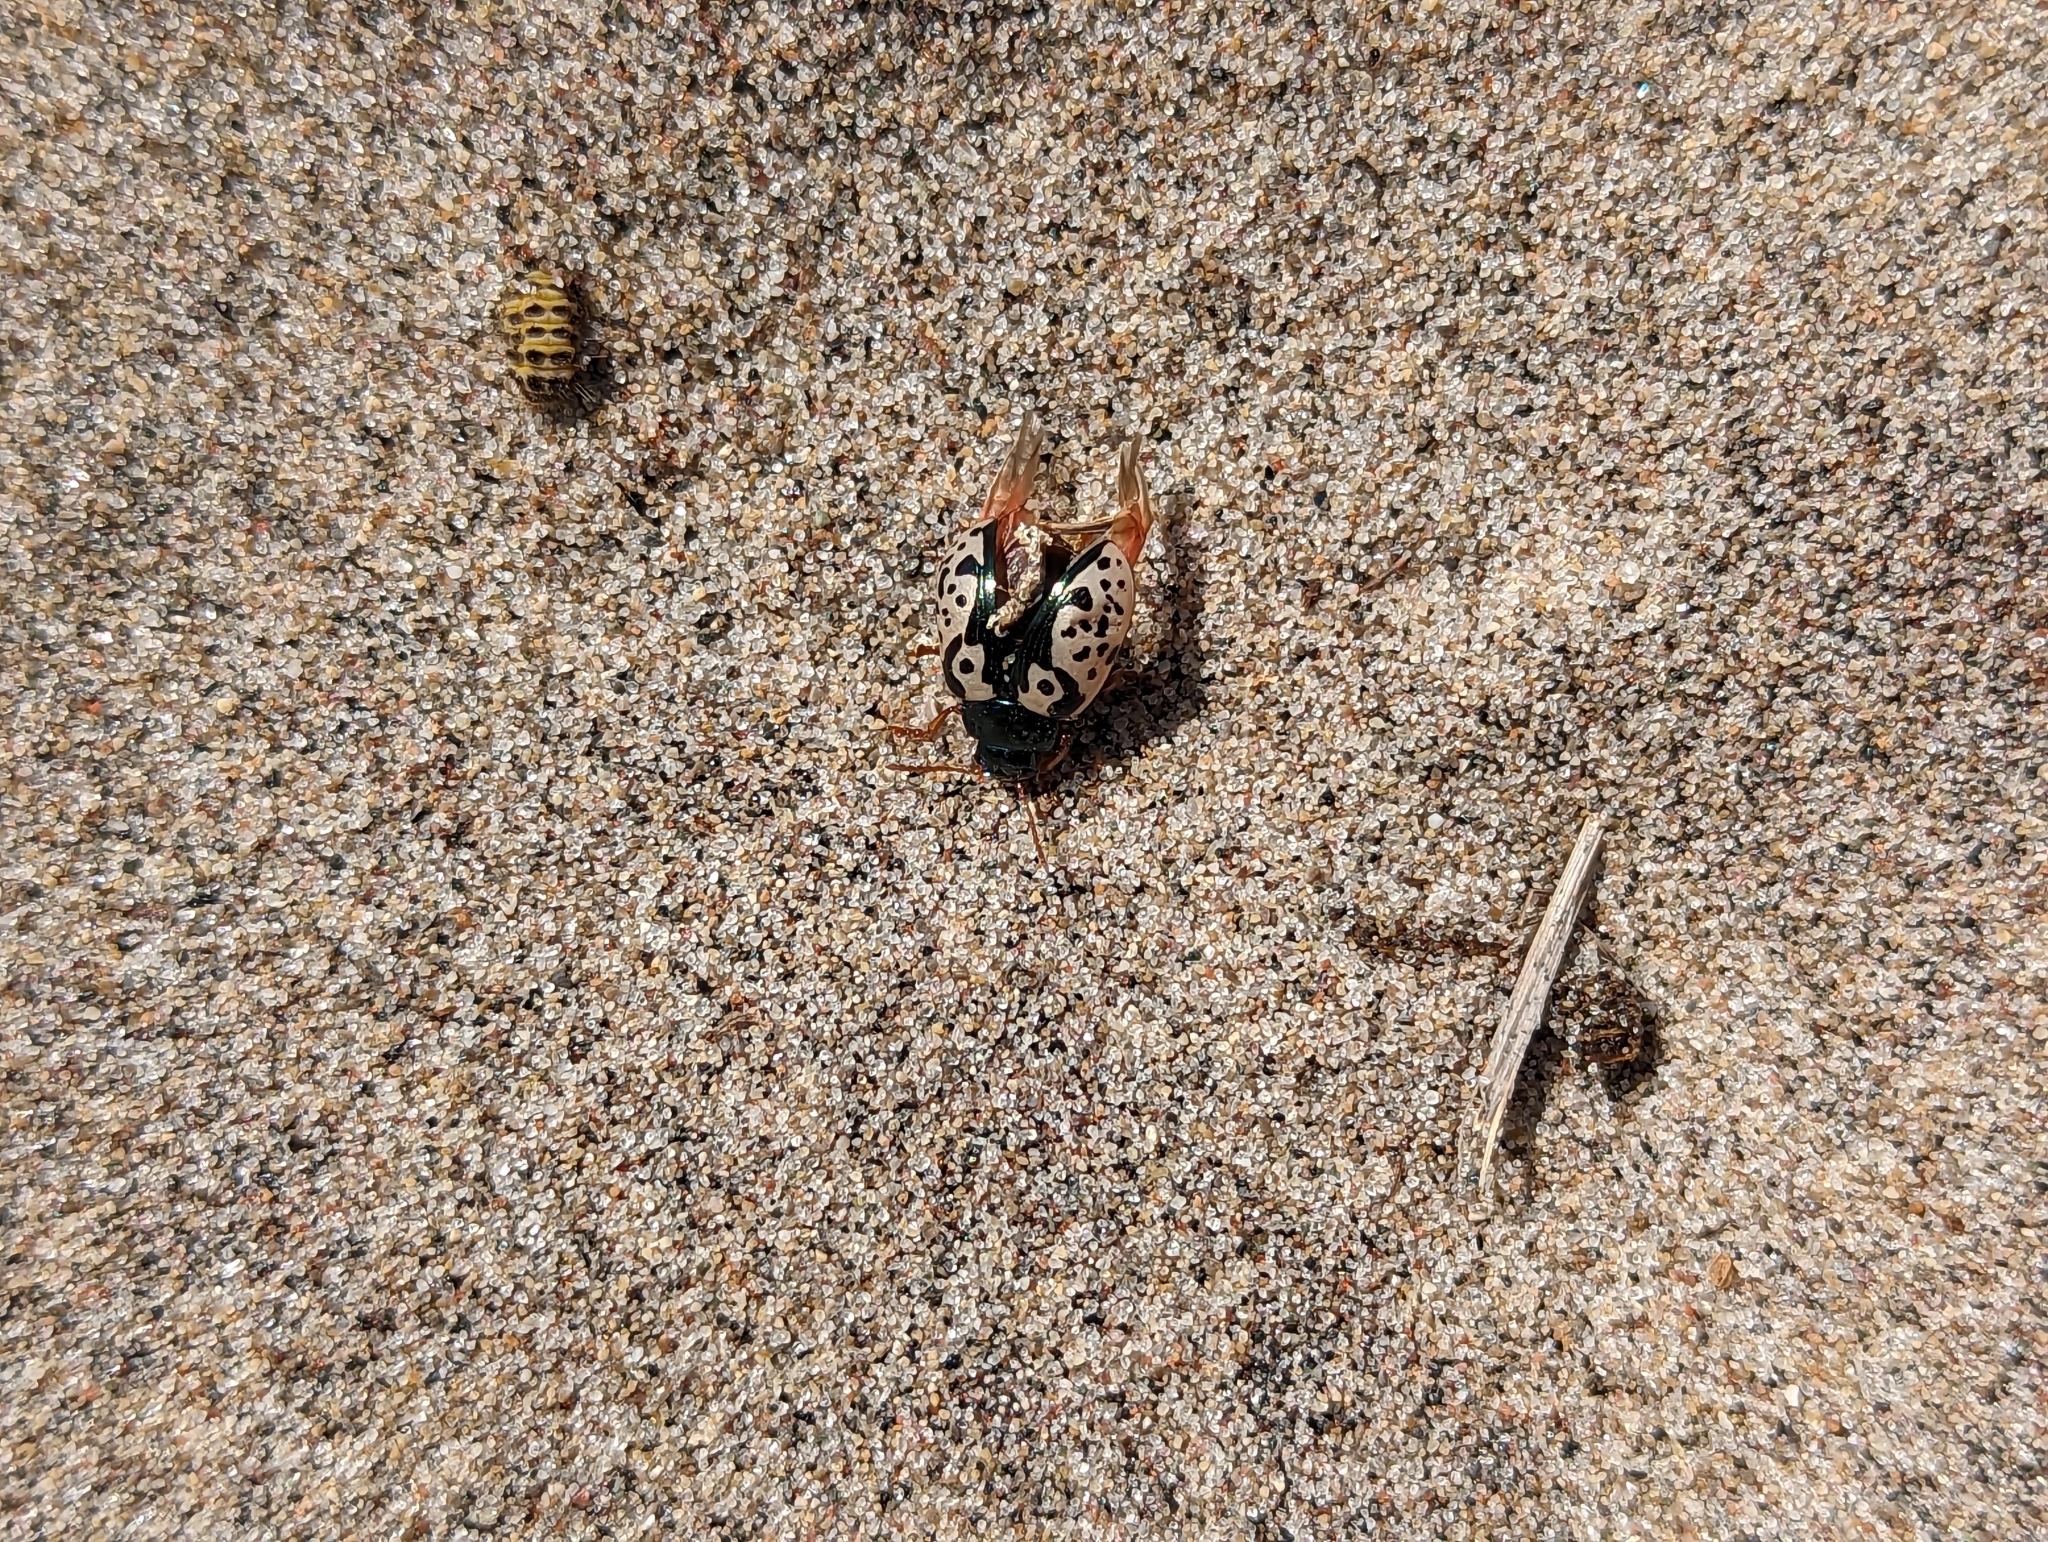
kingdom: Animalia
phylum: Arthropoda
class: Insecta
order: Coleoptera
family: Chrysomelidae
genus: Calligrapha
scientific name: Calligrapha confluens
